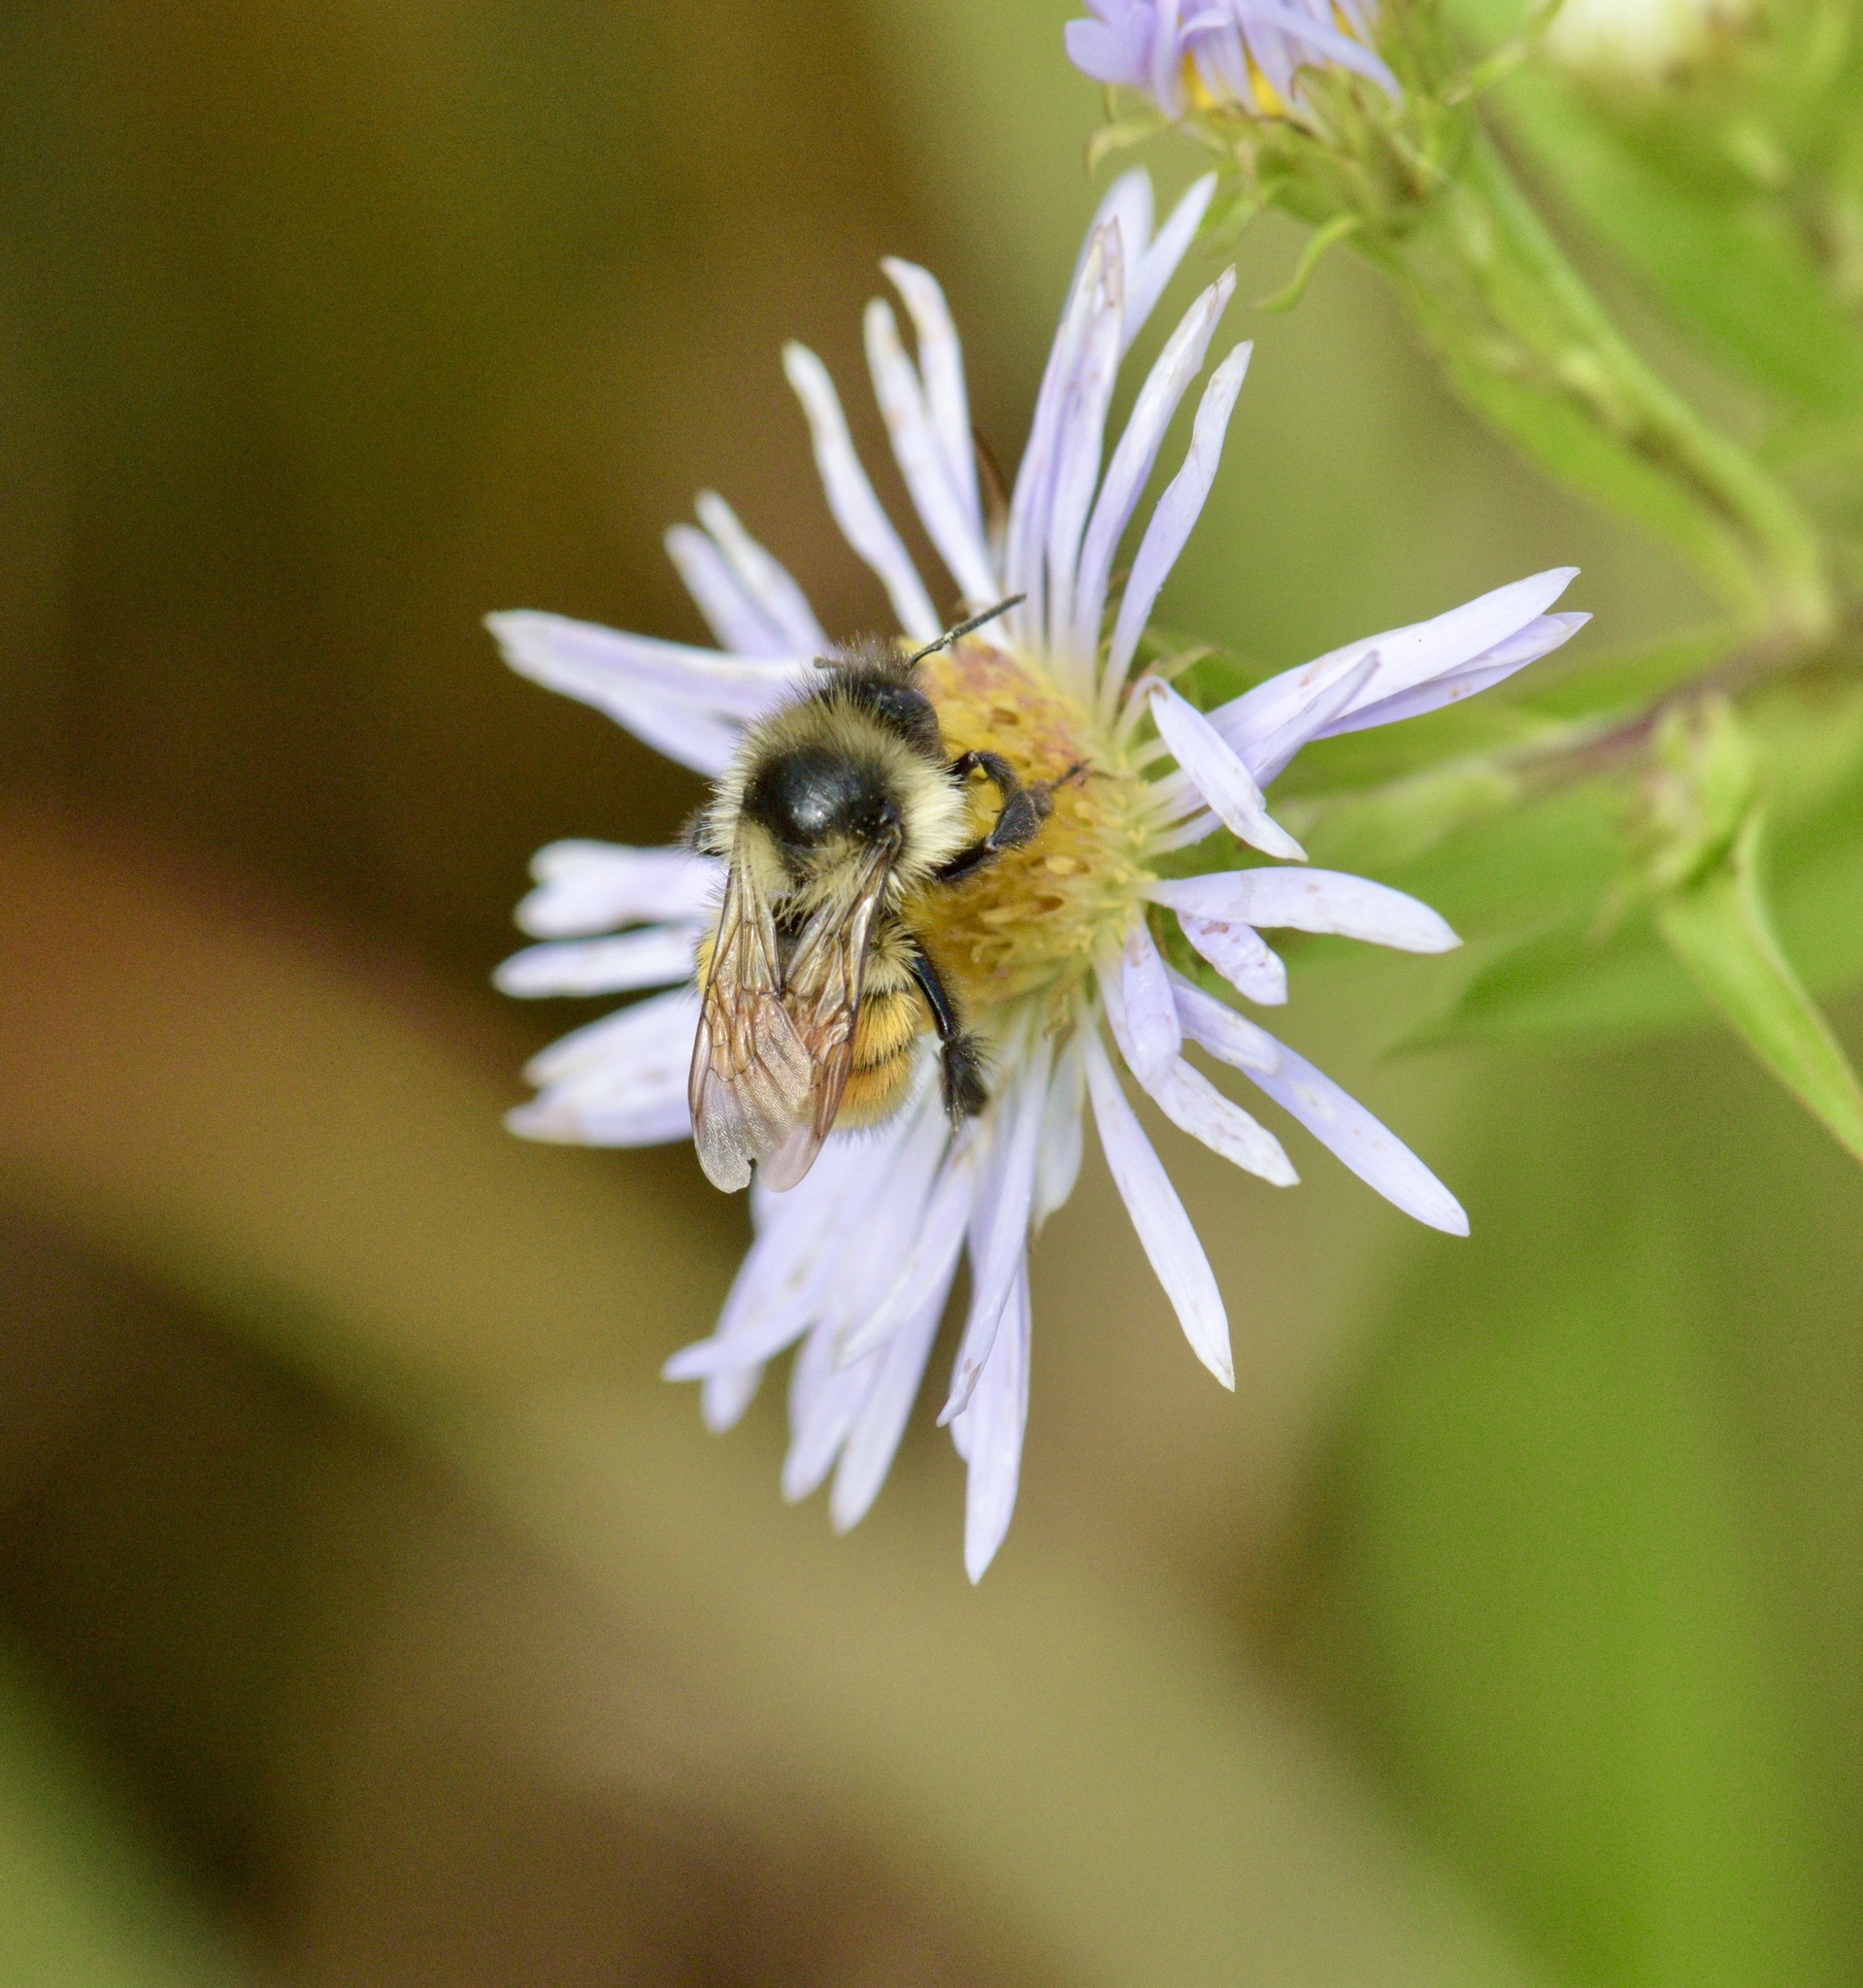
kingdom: Animalia
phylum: Arthropoda
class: Insecta
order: Hymenoptera
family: Apidae
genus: Bombus
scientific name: Bombus ternarius
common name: Tri-colored bumble bee
